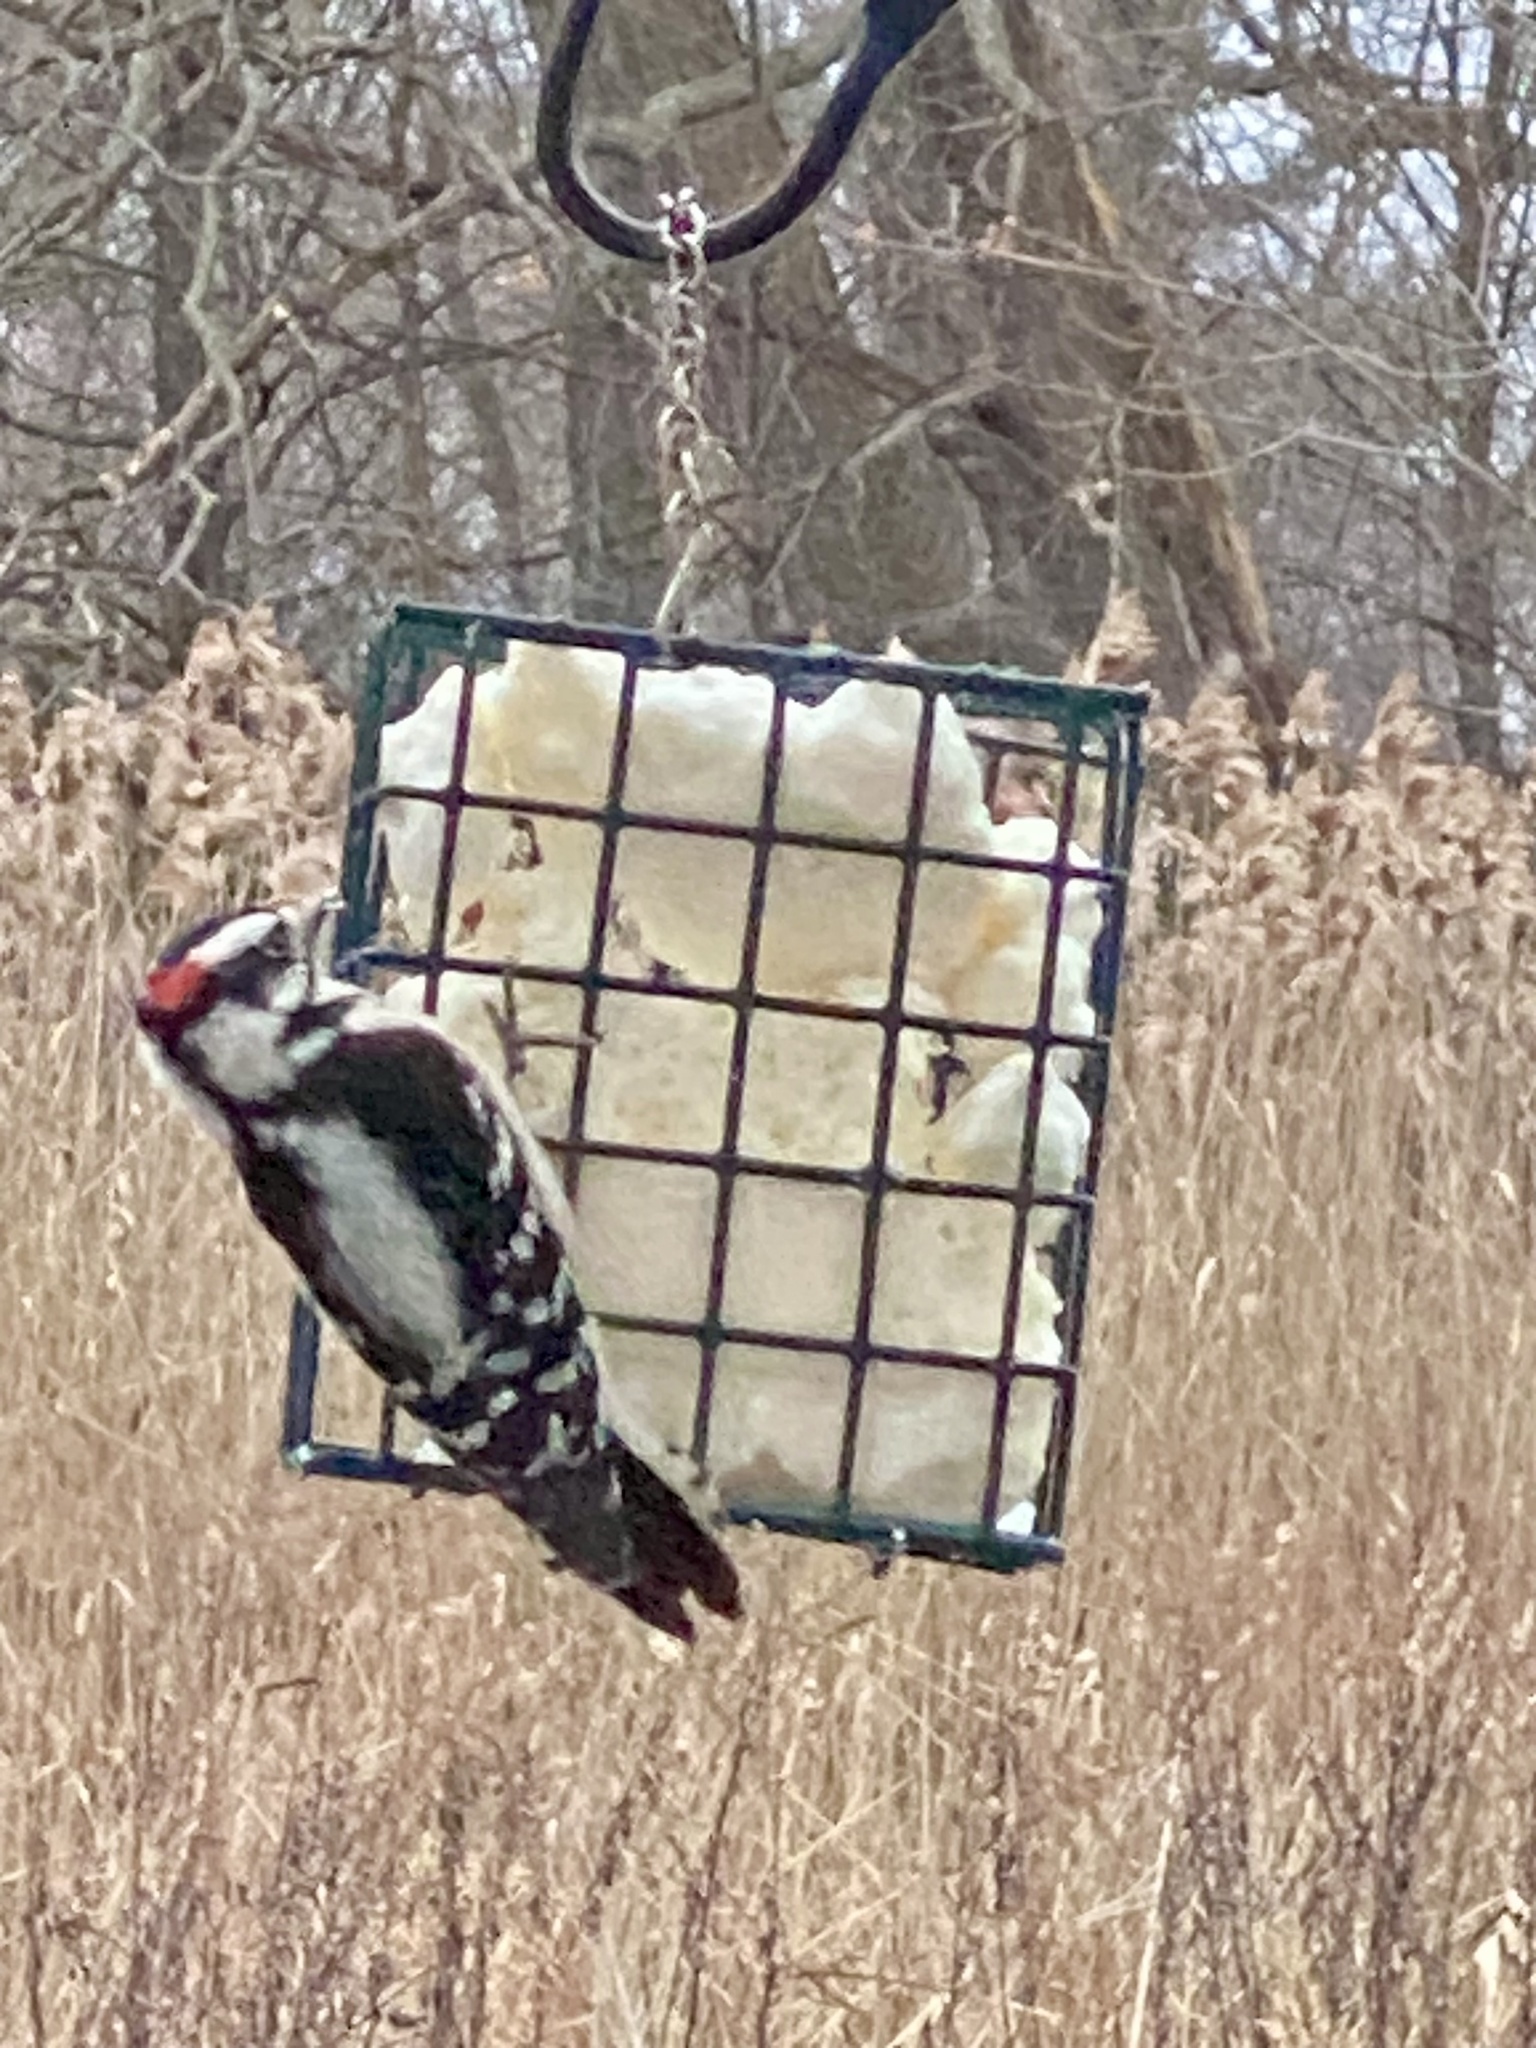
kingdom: Animalia
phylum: Chordata
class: Aves
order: Piciformes
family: Picidae
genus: Dryobates
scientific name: Dryobates pubescens
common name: Downy woodpecker
